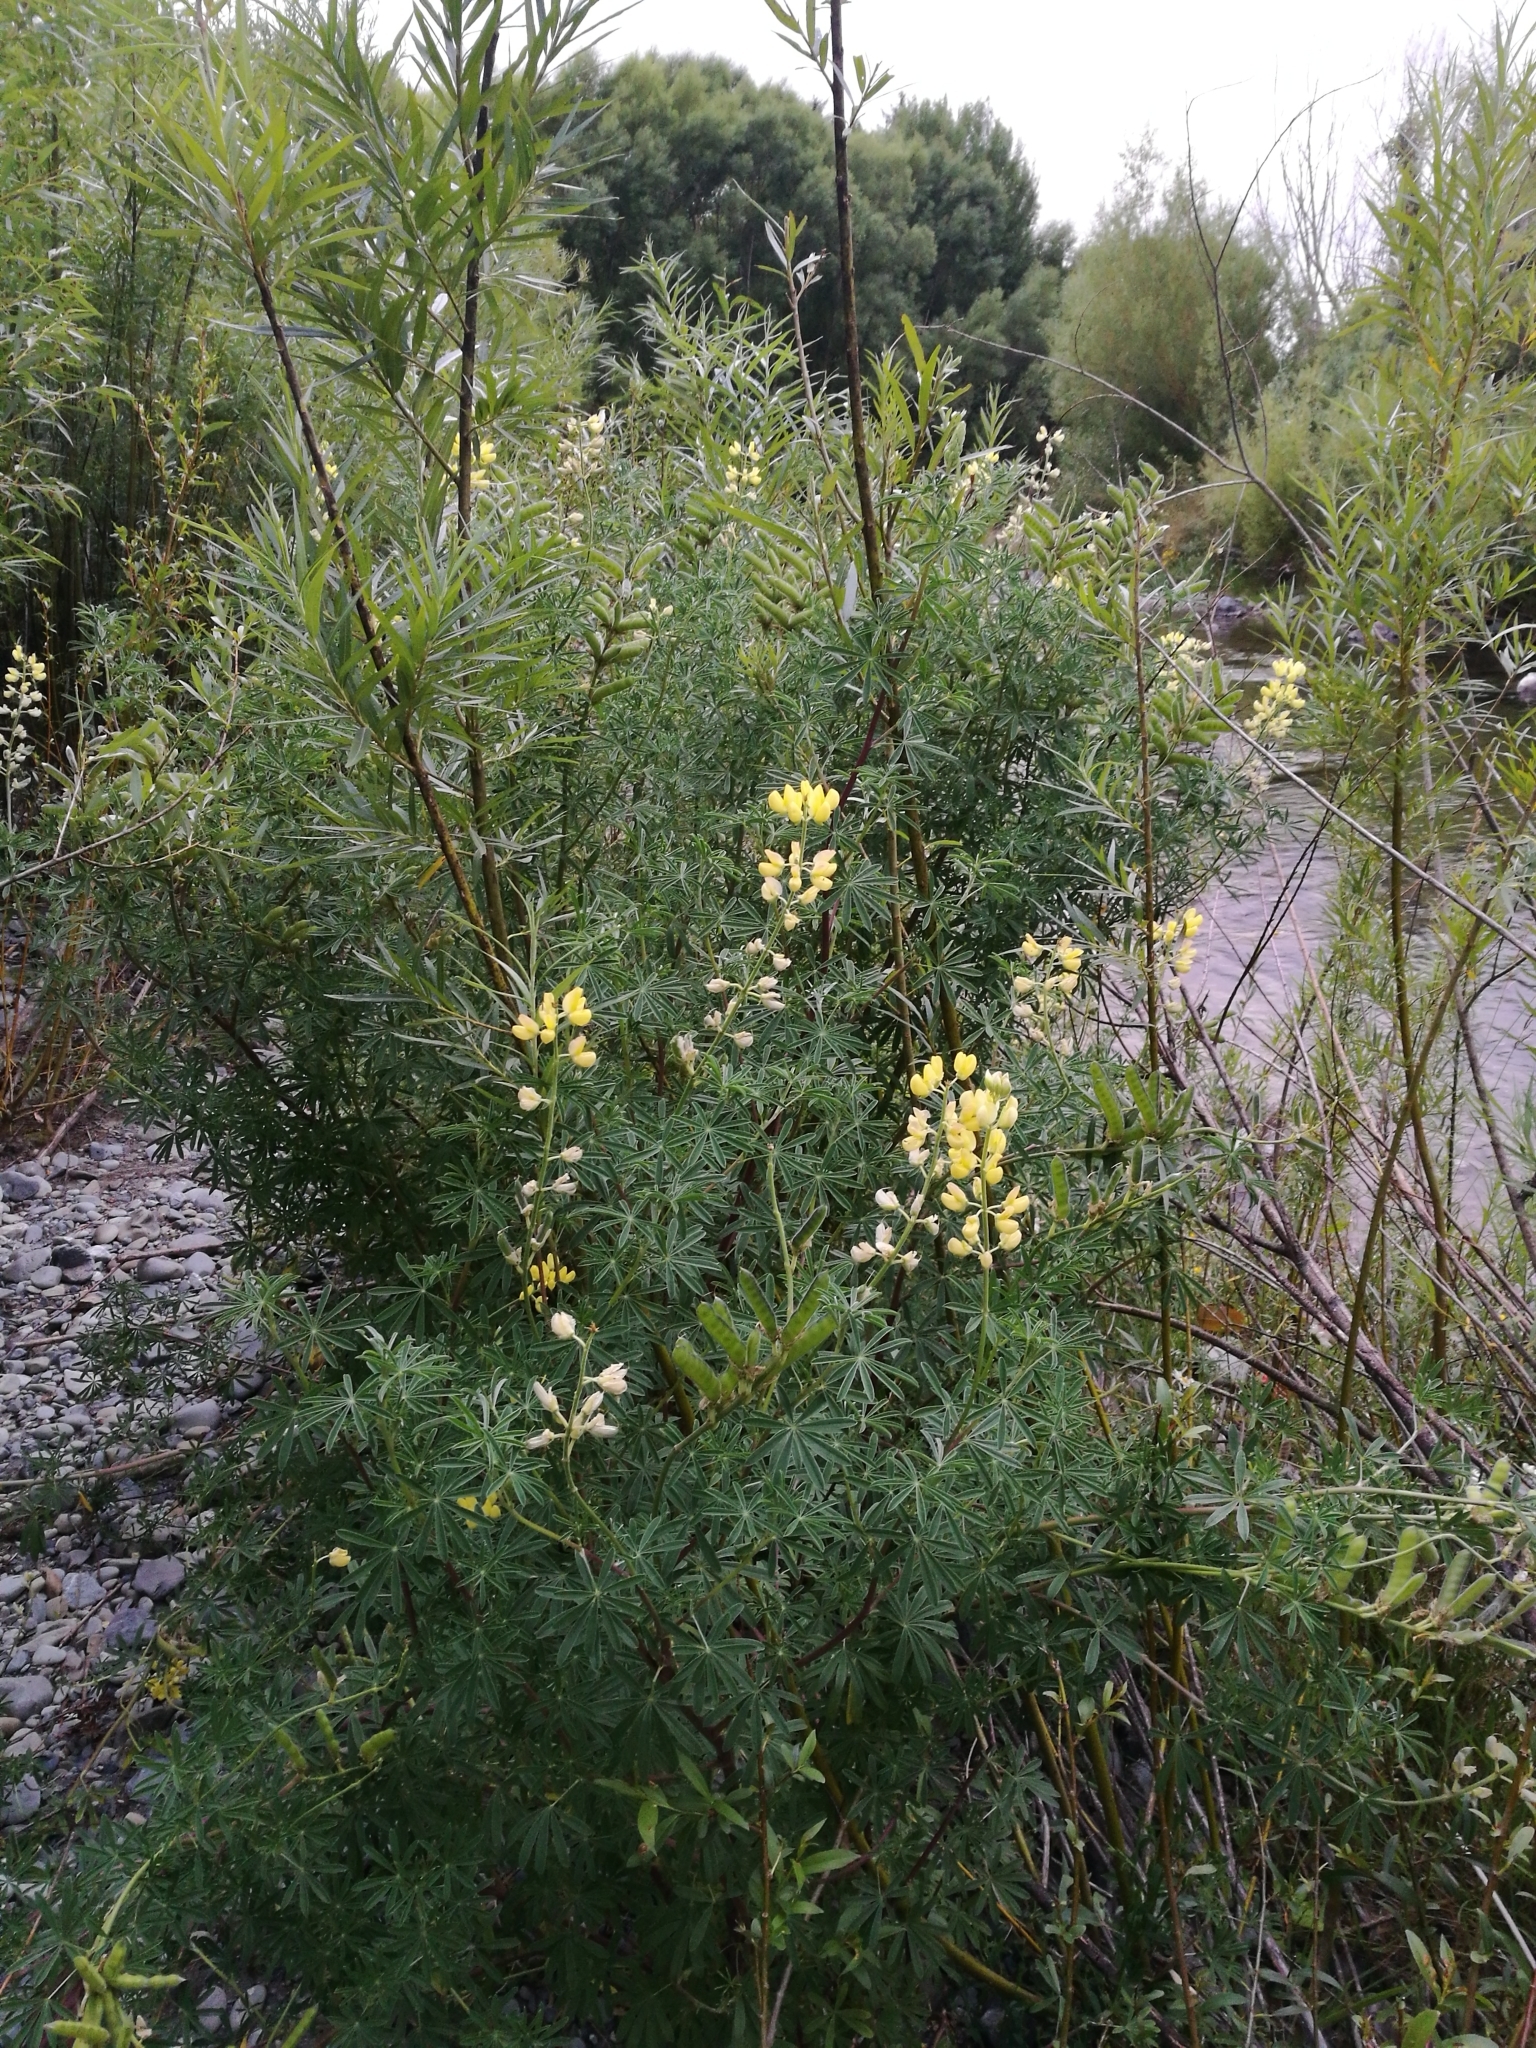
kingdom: Plantae
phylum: Tracheophyta
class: Magnoliopsida
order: Fabales
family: Fabaceae
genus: Lupinus
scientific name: Lupinus arboreus
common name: Yellow bush lupine
